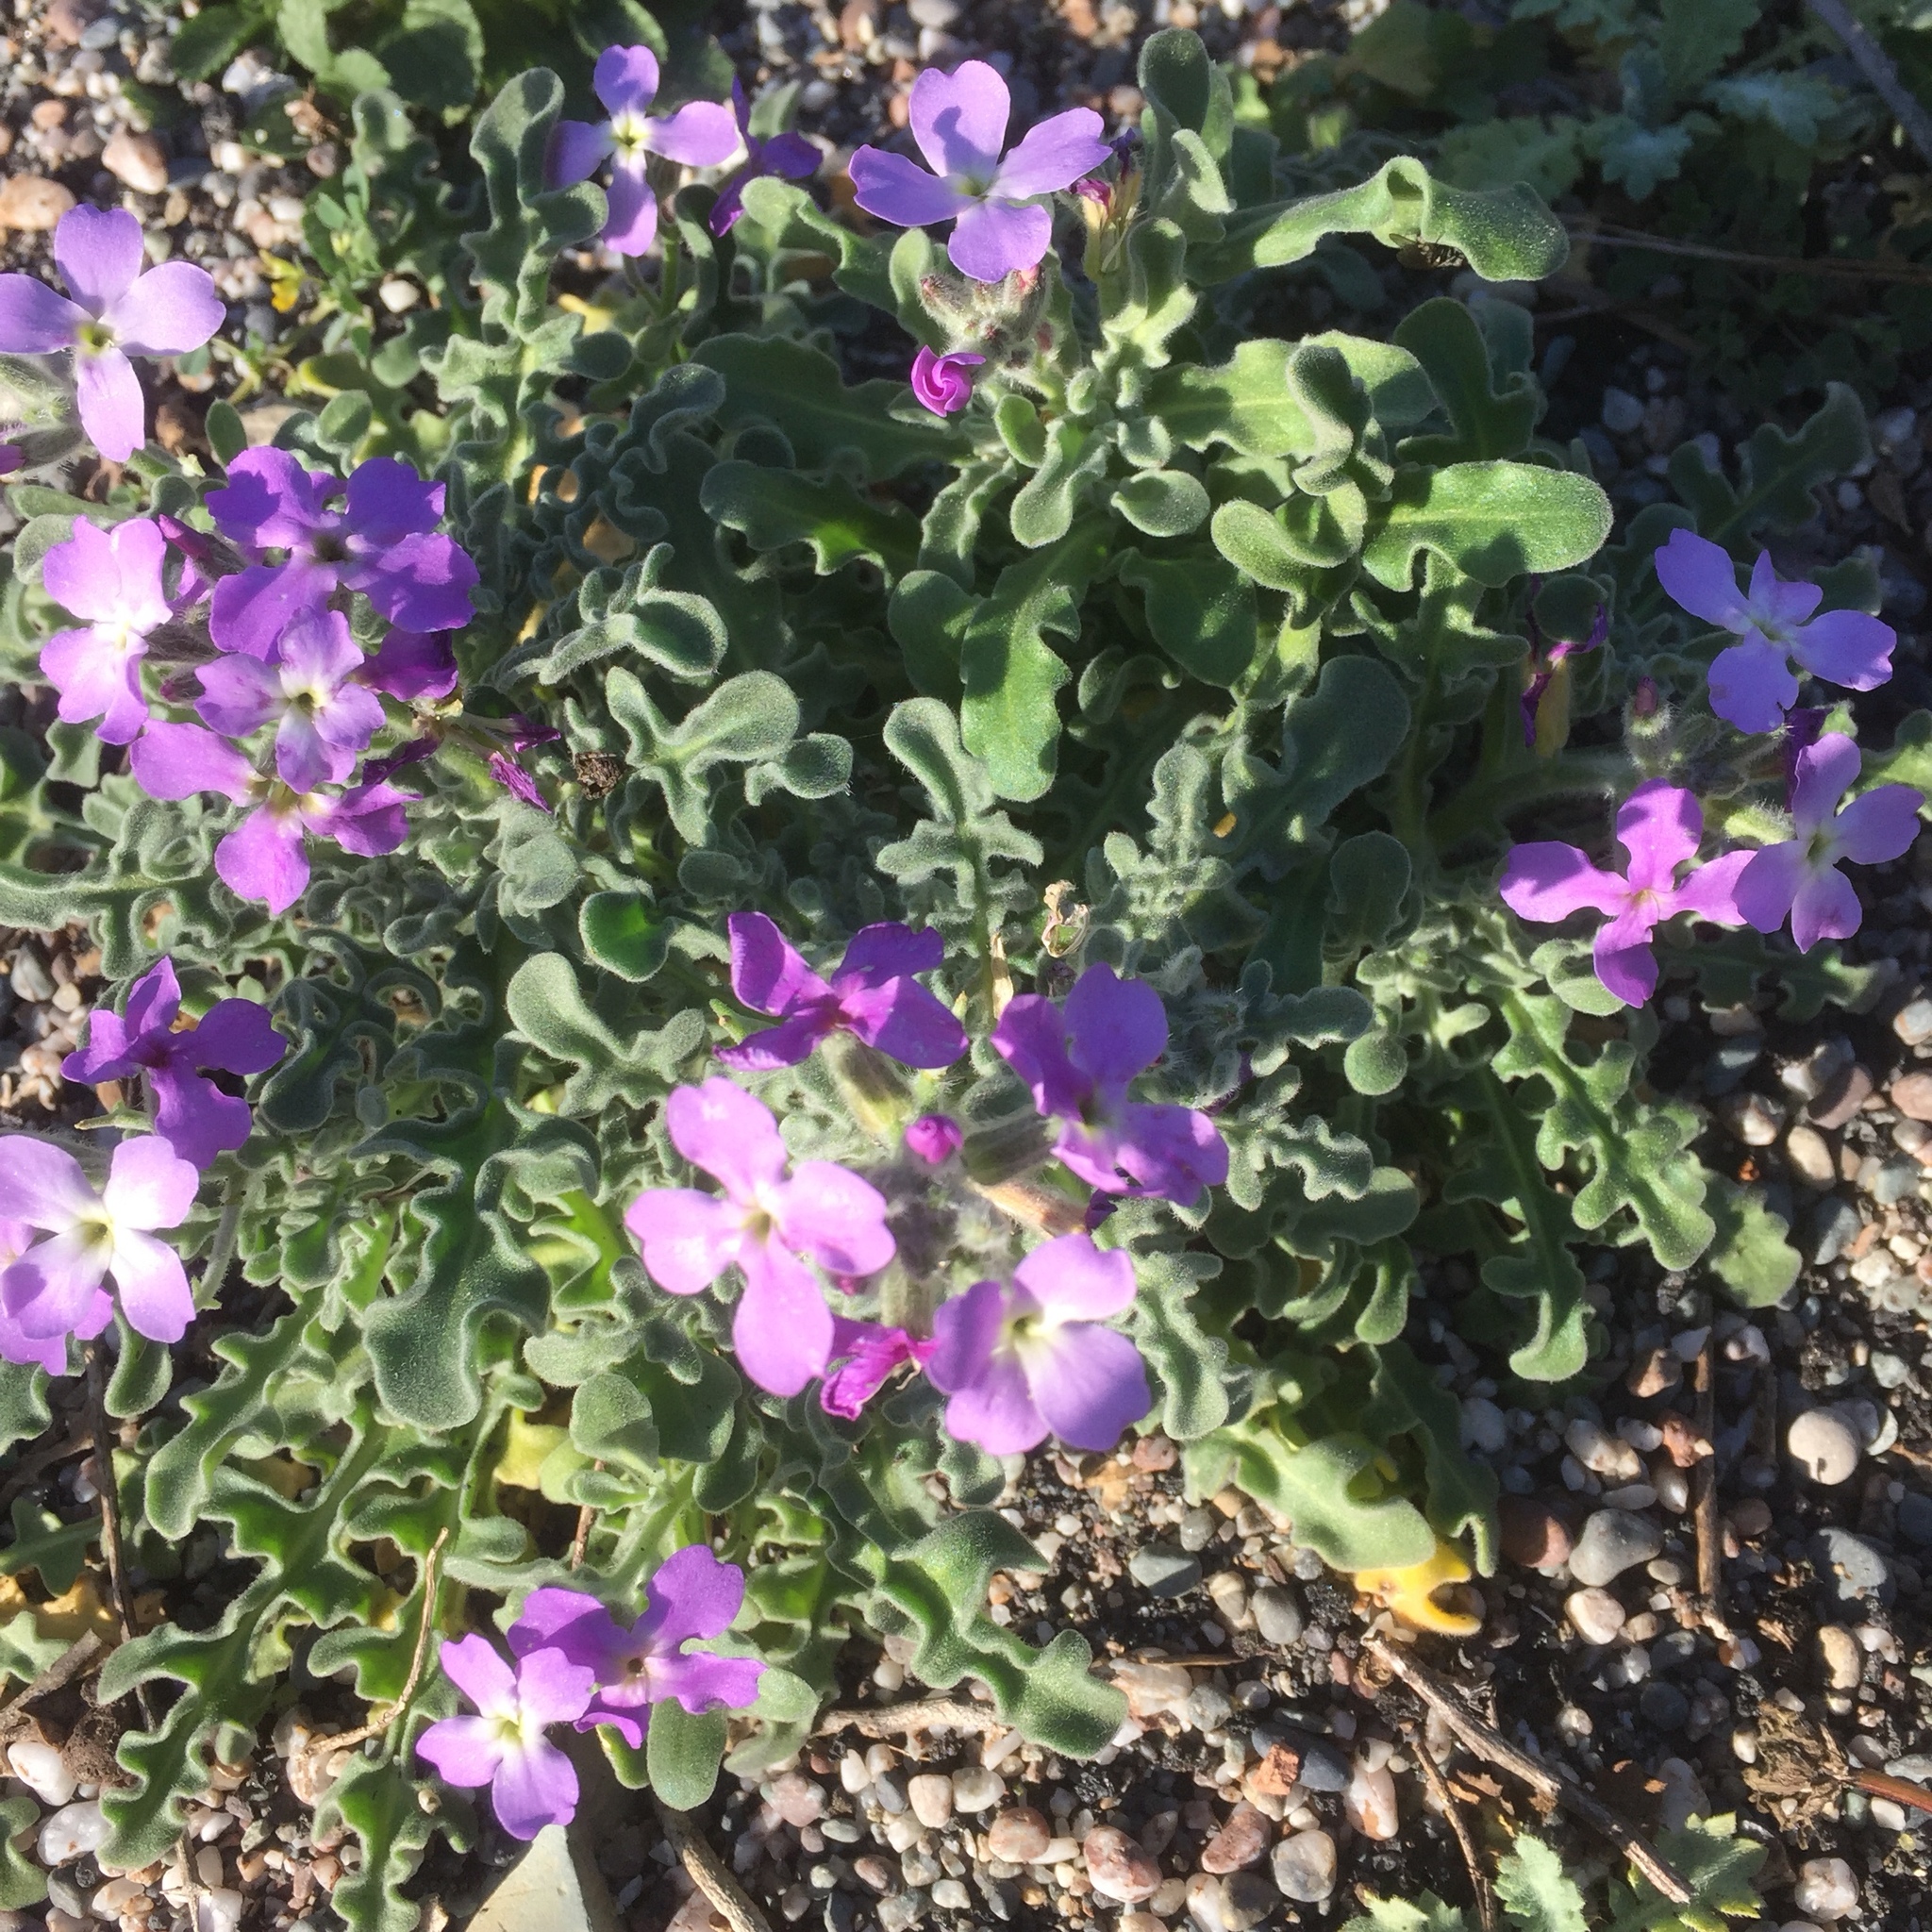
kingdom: Plantae
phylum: Tracheophyta
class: Magnoliopsida
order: Brassicales
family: Brassicaceae
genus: Matthiola
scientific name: Matthiola tricuspidata
